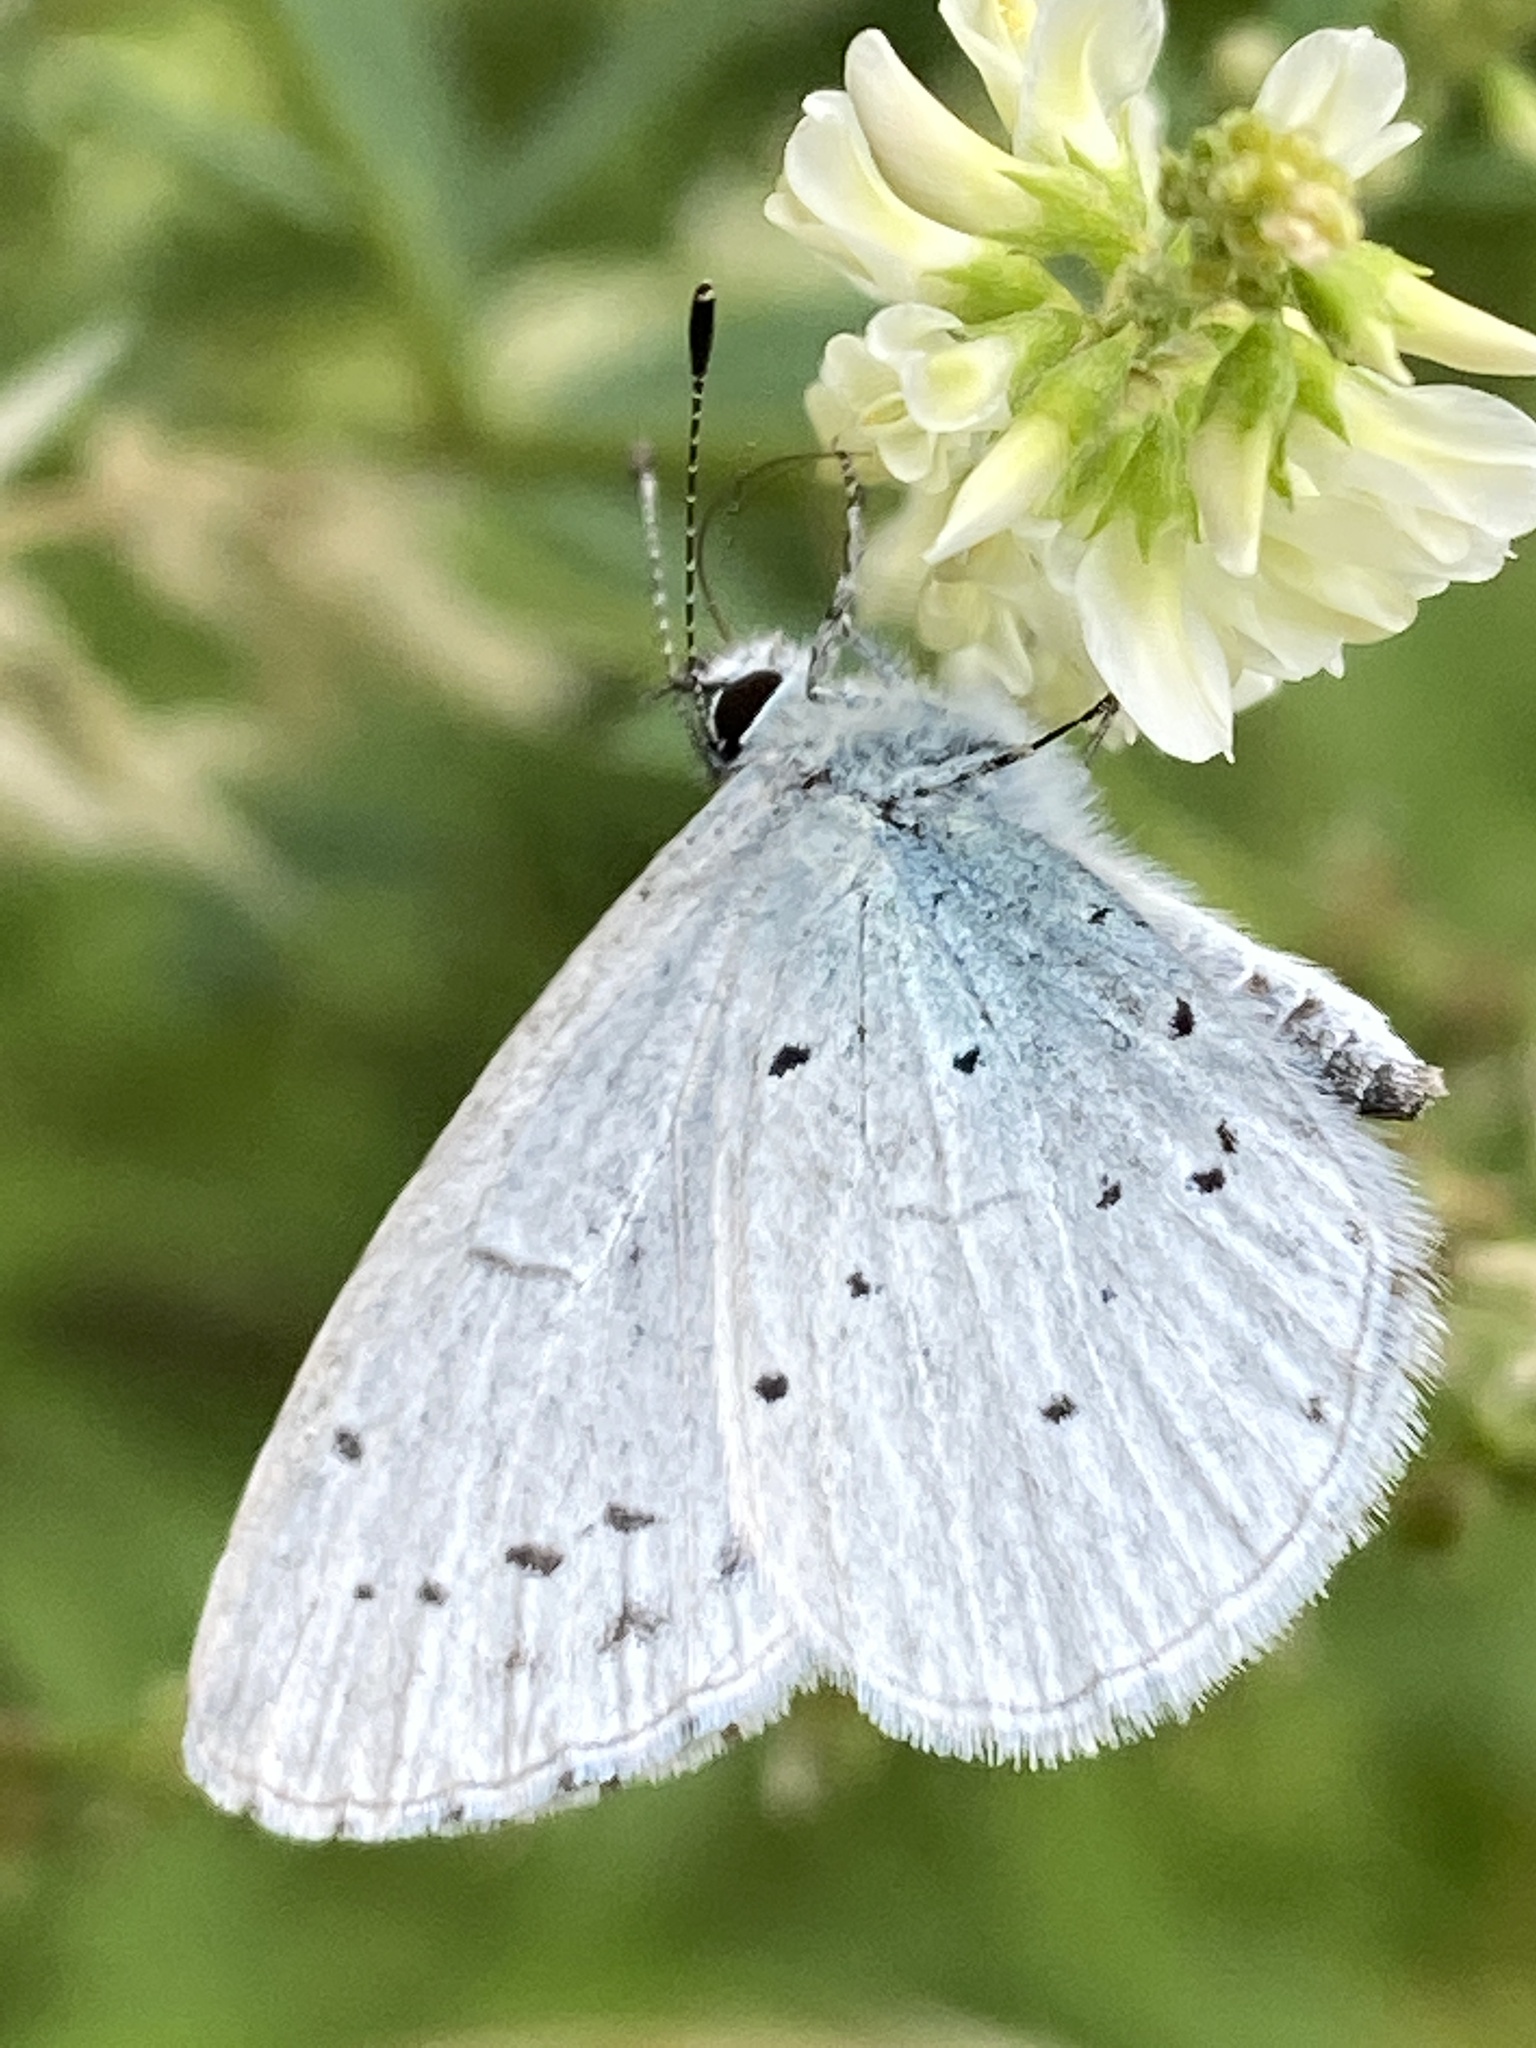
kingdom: Animalia
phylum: Arthropoda
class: Insecta
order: Lepidoptera
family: Lycaenidae
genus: Celastrina
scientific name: Celastrina argiolus
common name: Holly blue
